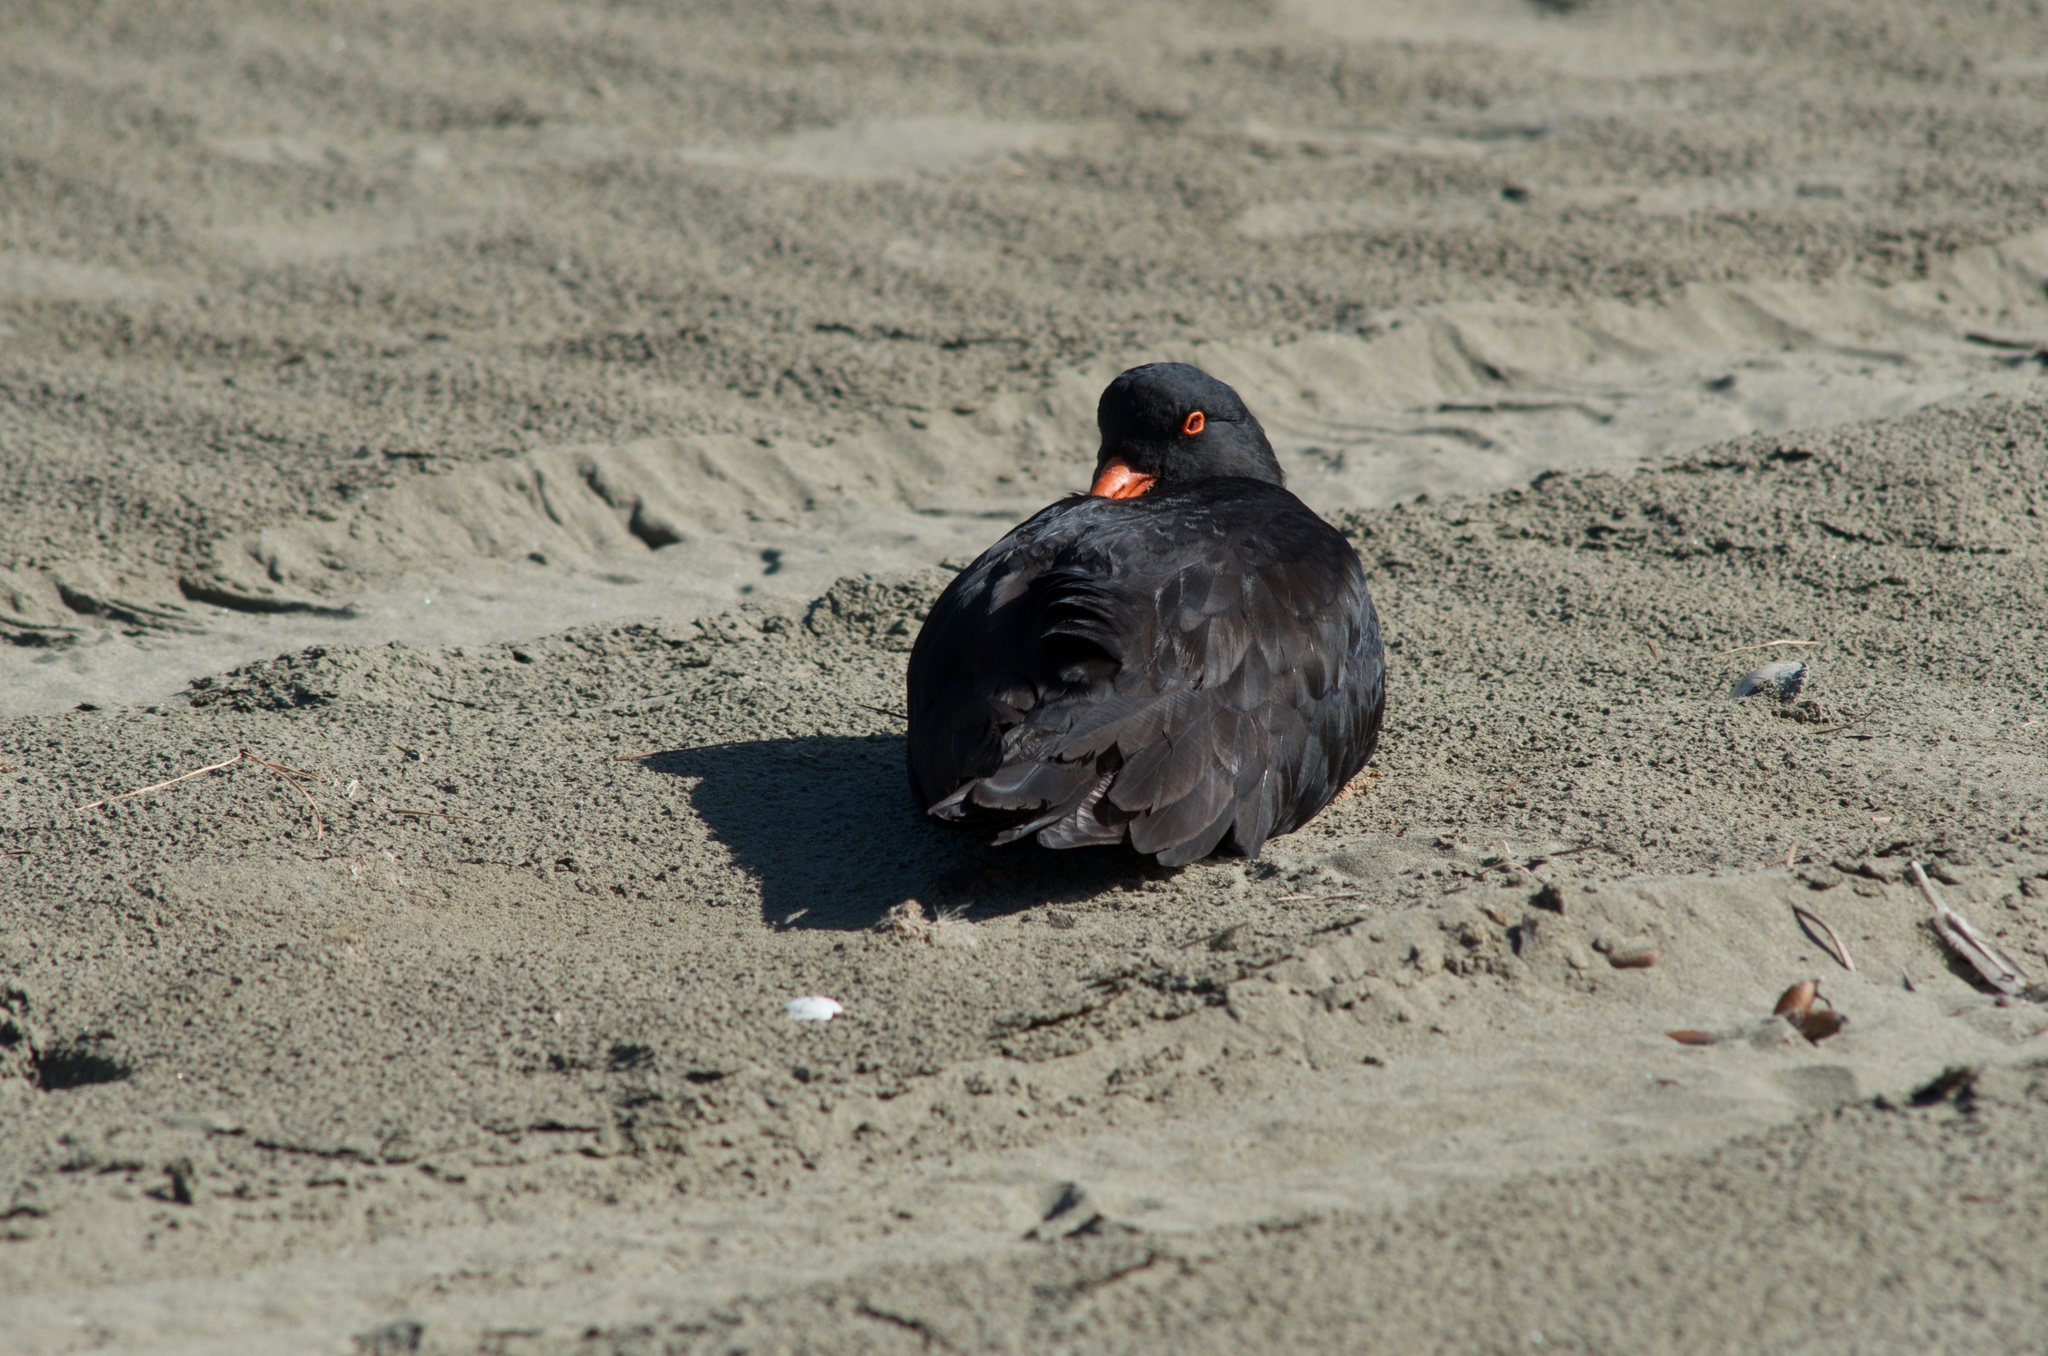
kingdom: Animalia
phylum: Chordata
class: Aves
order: Charadriiformes
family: Haematopodidae
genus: Haematopus
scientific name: Haematopus unicolor
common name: Variable oystercatcher
